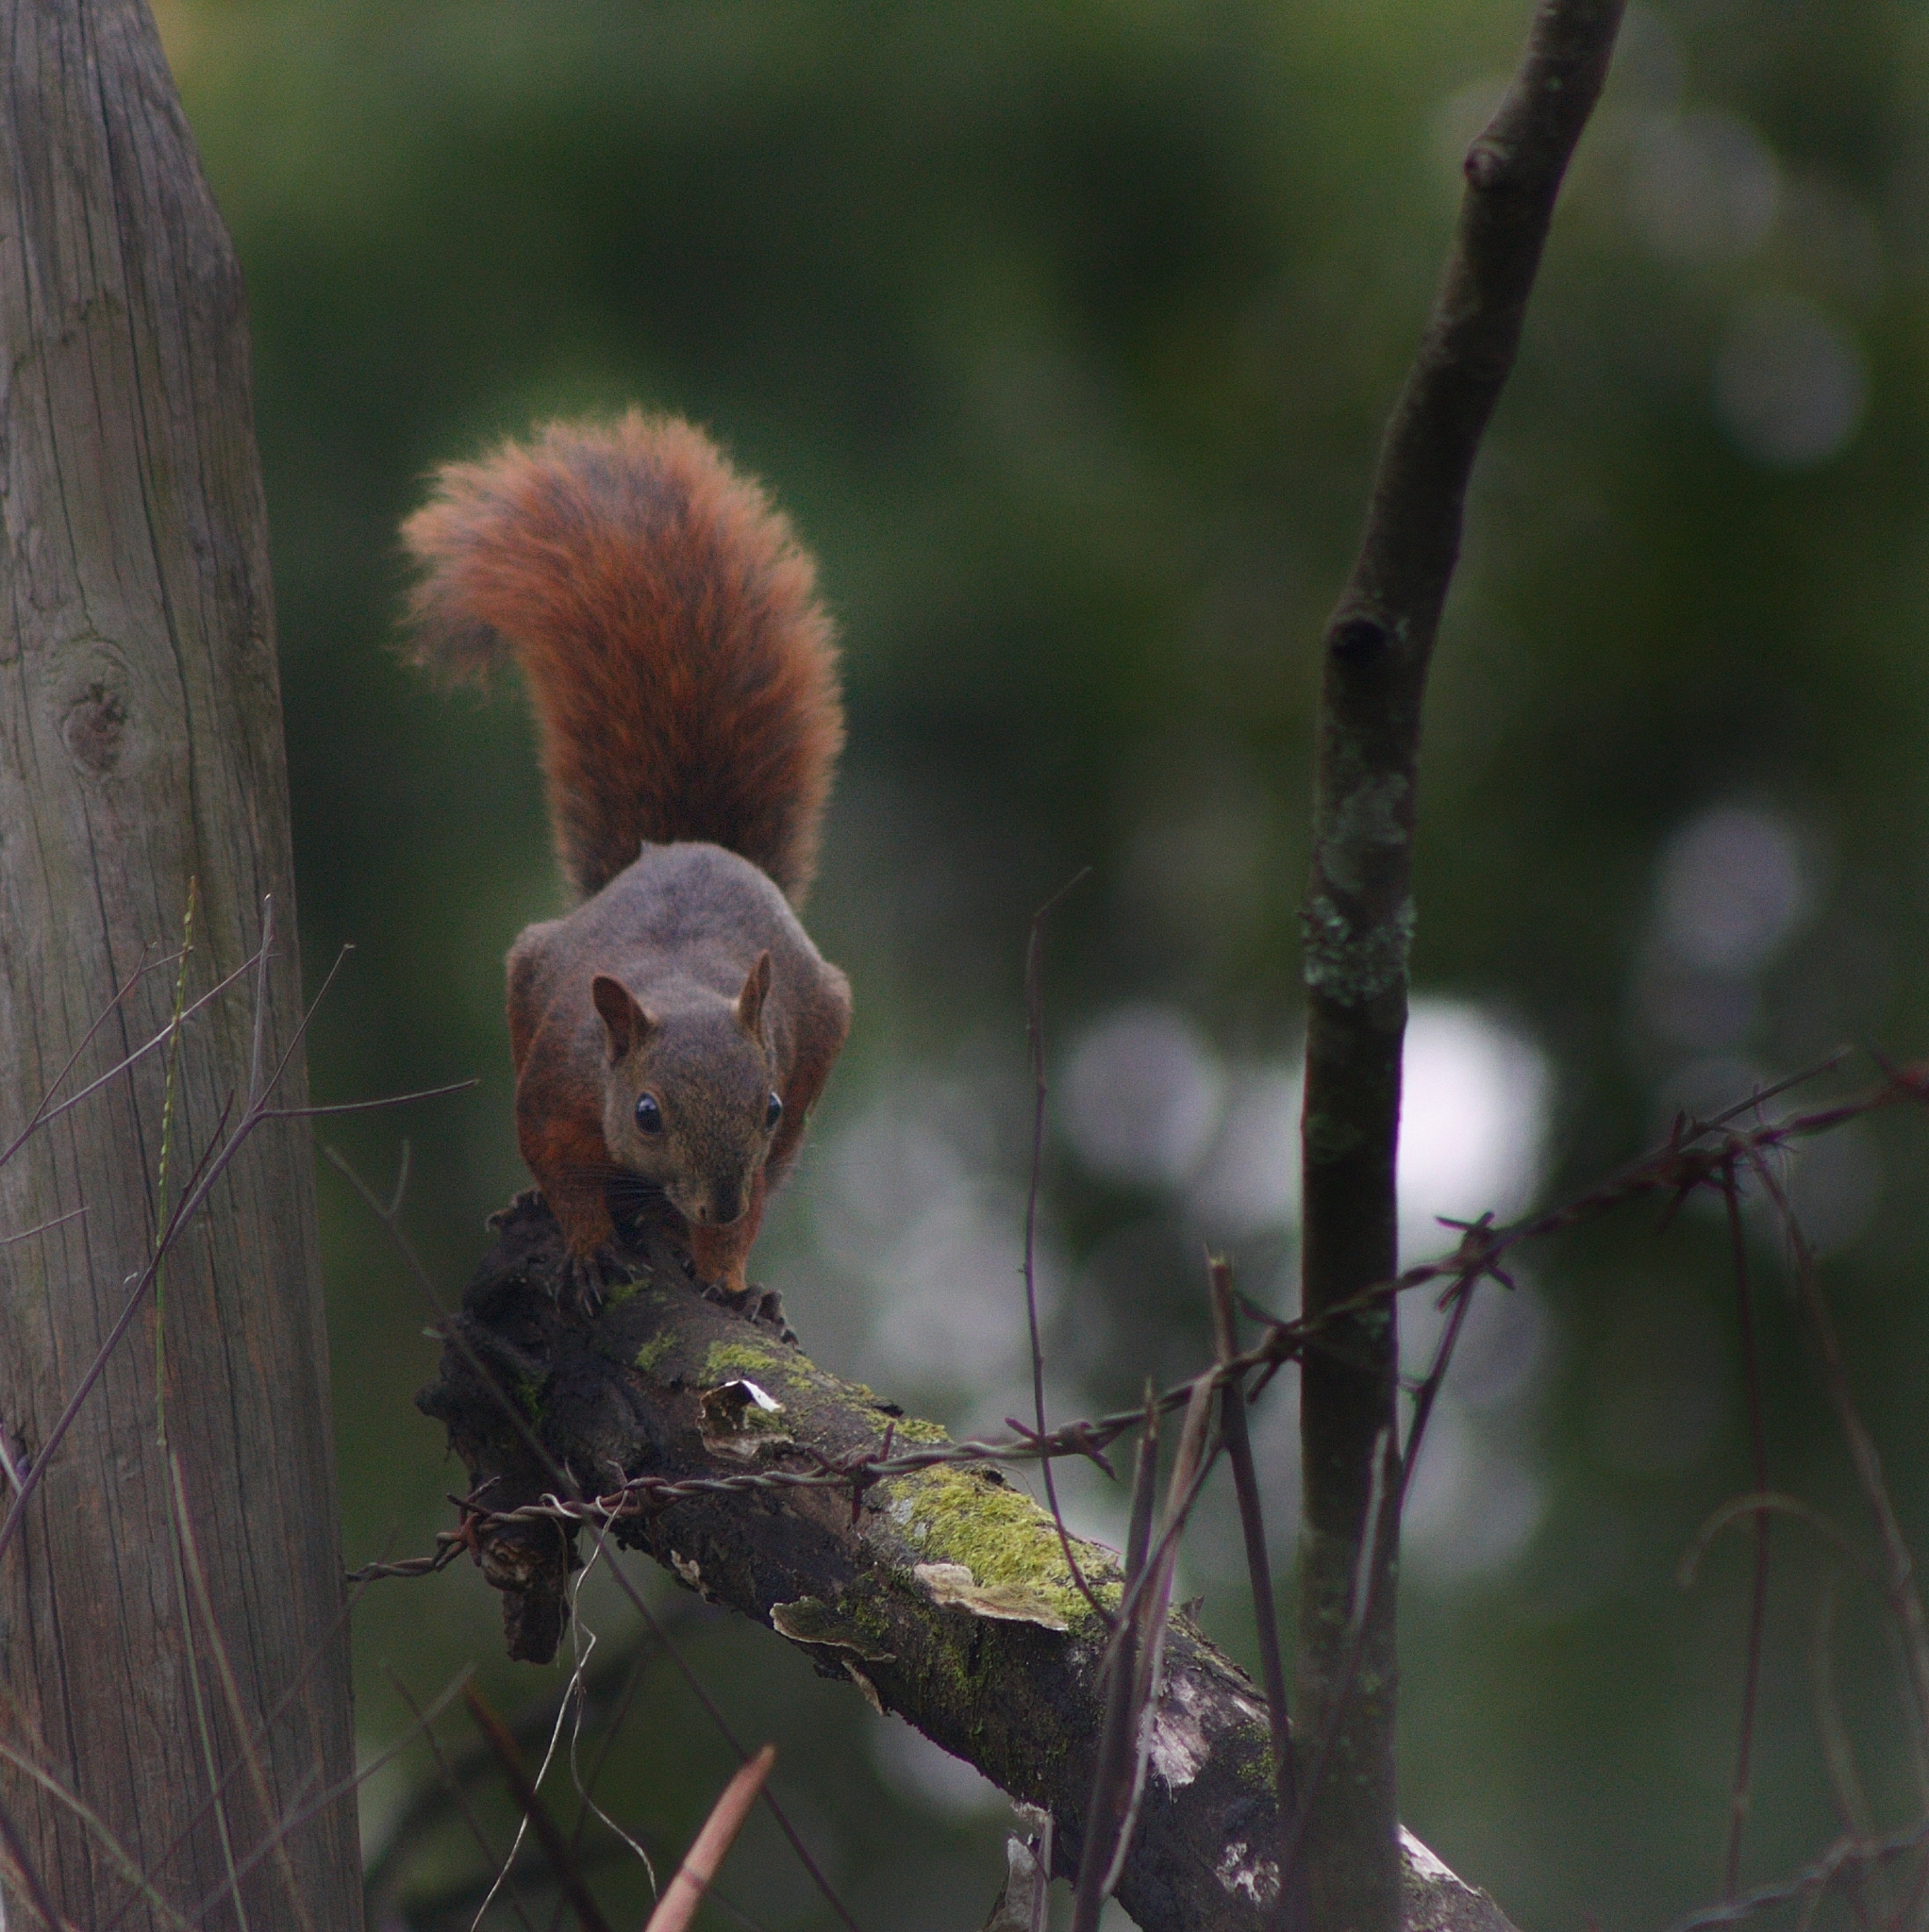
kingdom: Animalia
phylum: Chordata
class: Mammalia
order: Rodentia
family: Sciuridae
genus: Sciurus
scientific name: Sciurus granatensis
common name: Red-tailed squirrel
